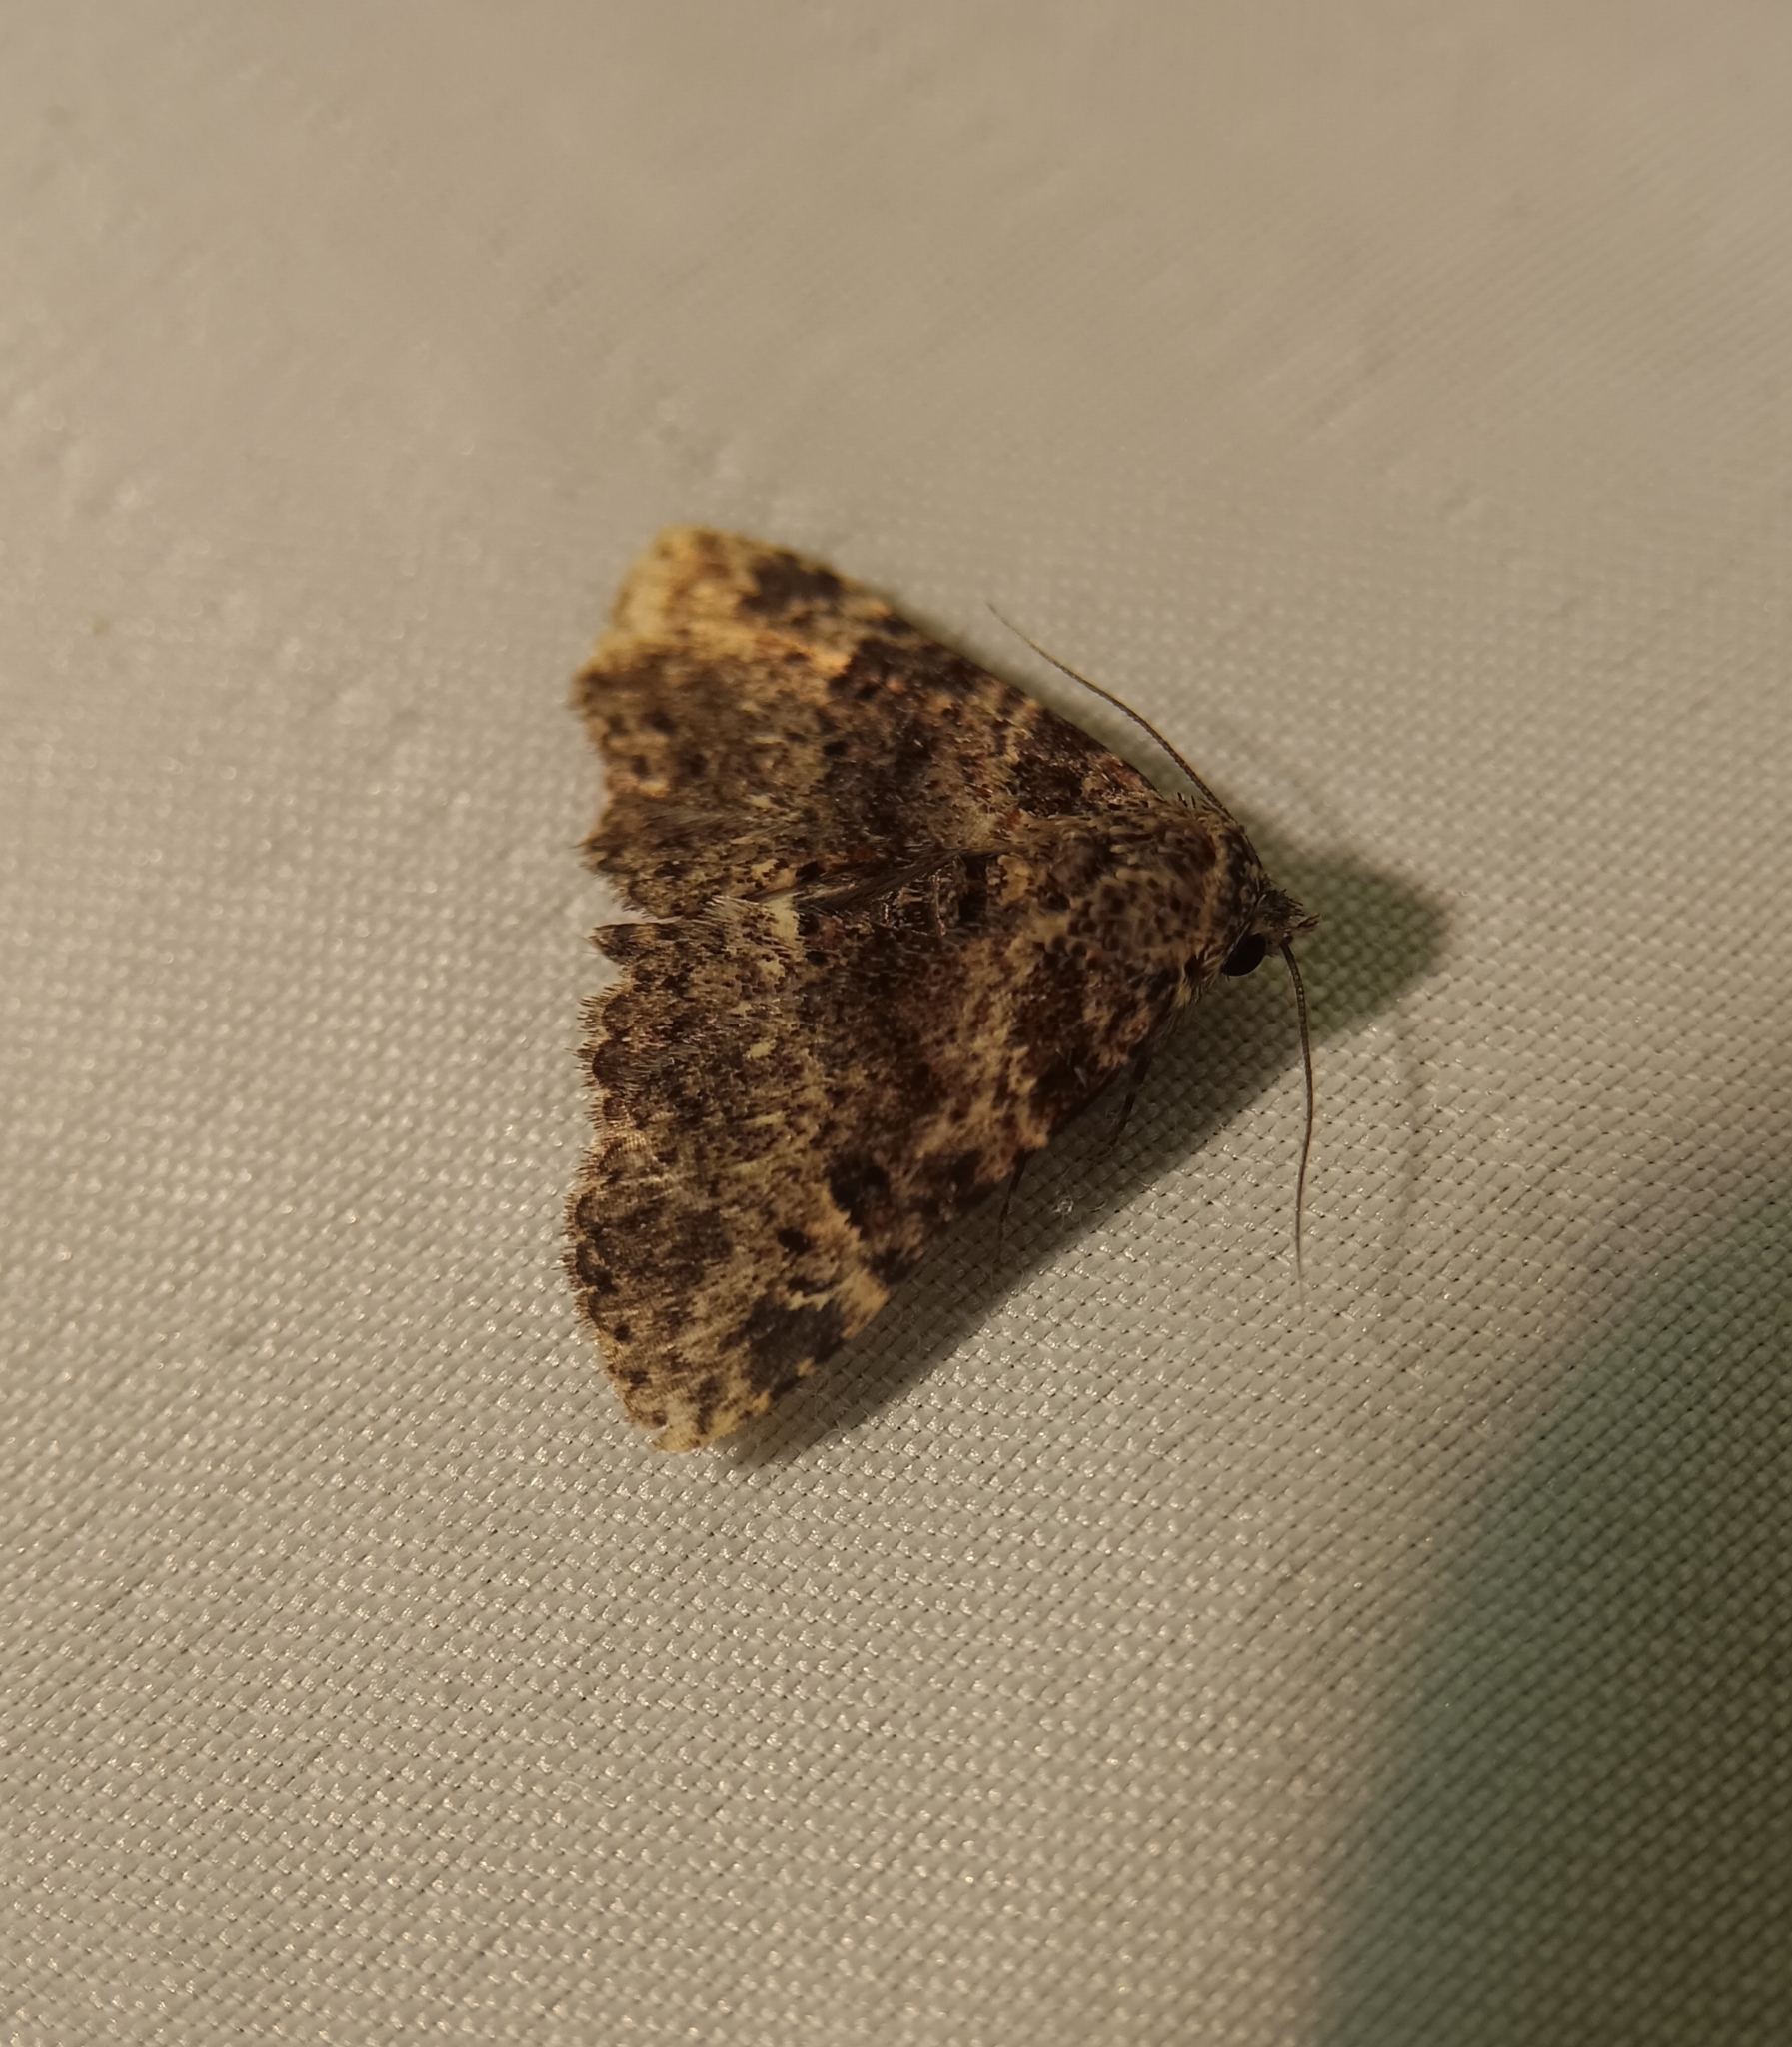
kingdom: Animalia
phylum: Arthropoda
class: Insecta
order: Lepidoptera
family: Erebidae
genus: Metalectra
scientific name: Metalectra discalis
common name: Common fungus moth
